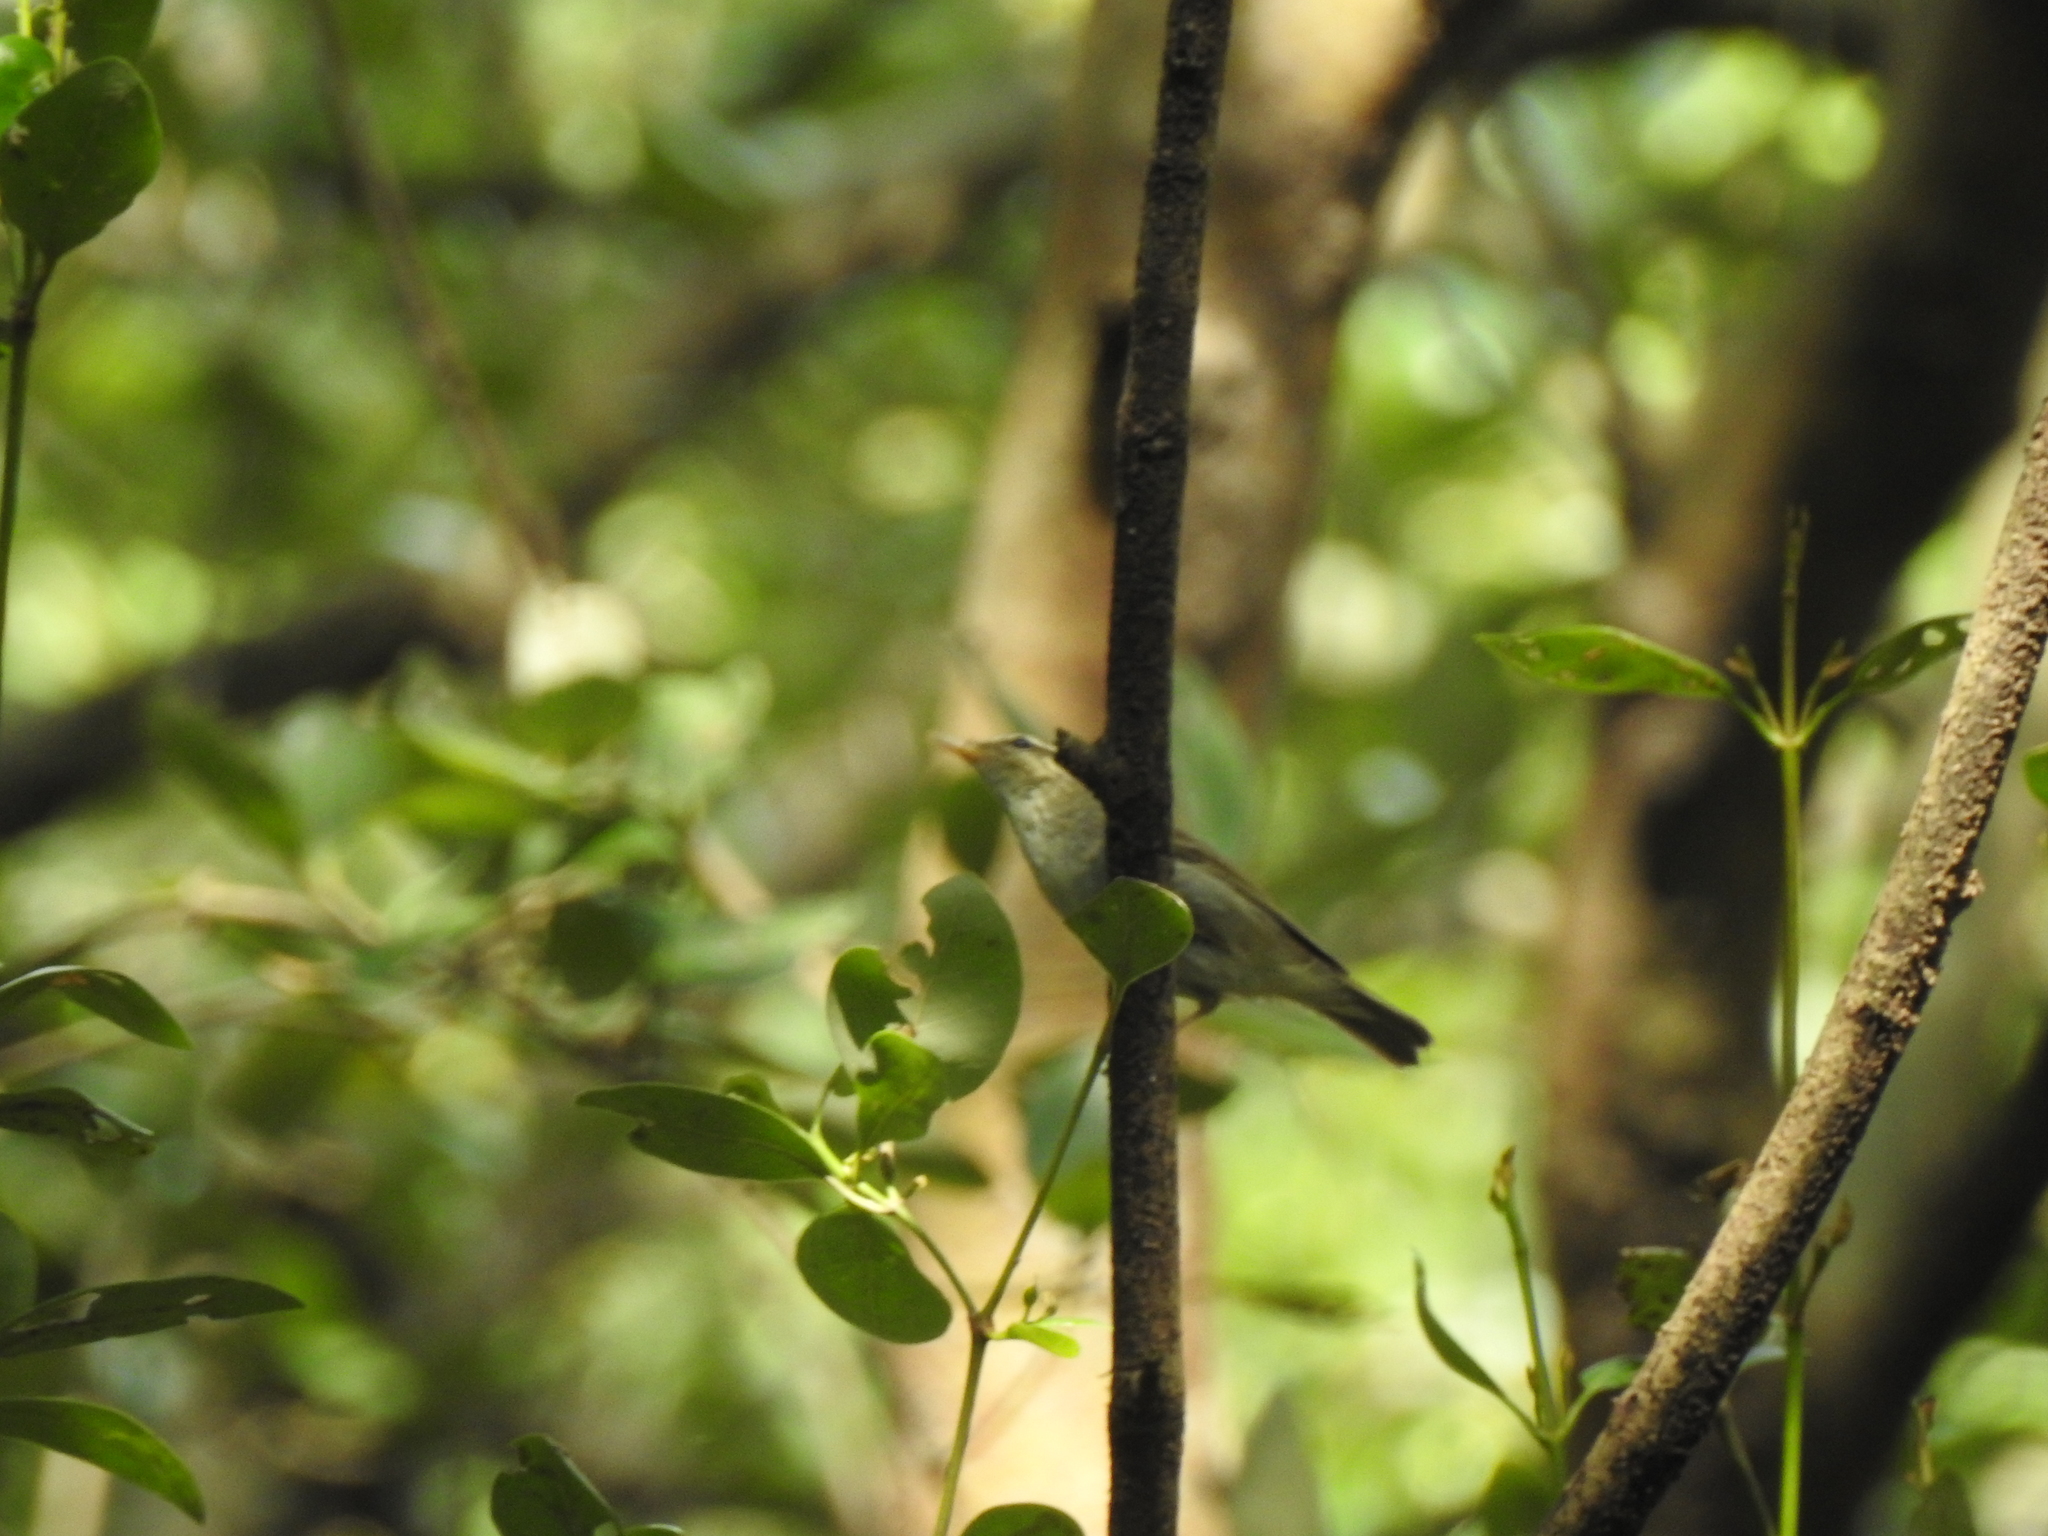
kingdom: Animalia
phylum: Chordata
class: Aves
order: Columbiformes
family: Columbidae
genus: Phapitreron
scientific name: Phapitreron leucotis
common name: White-eared brown dove
